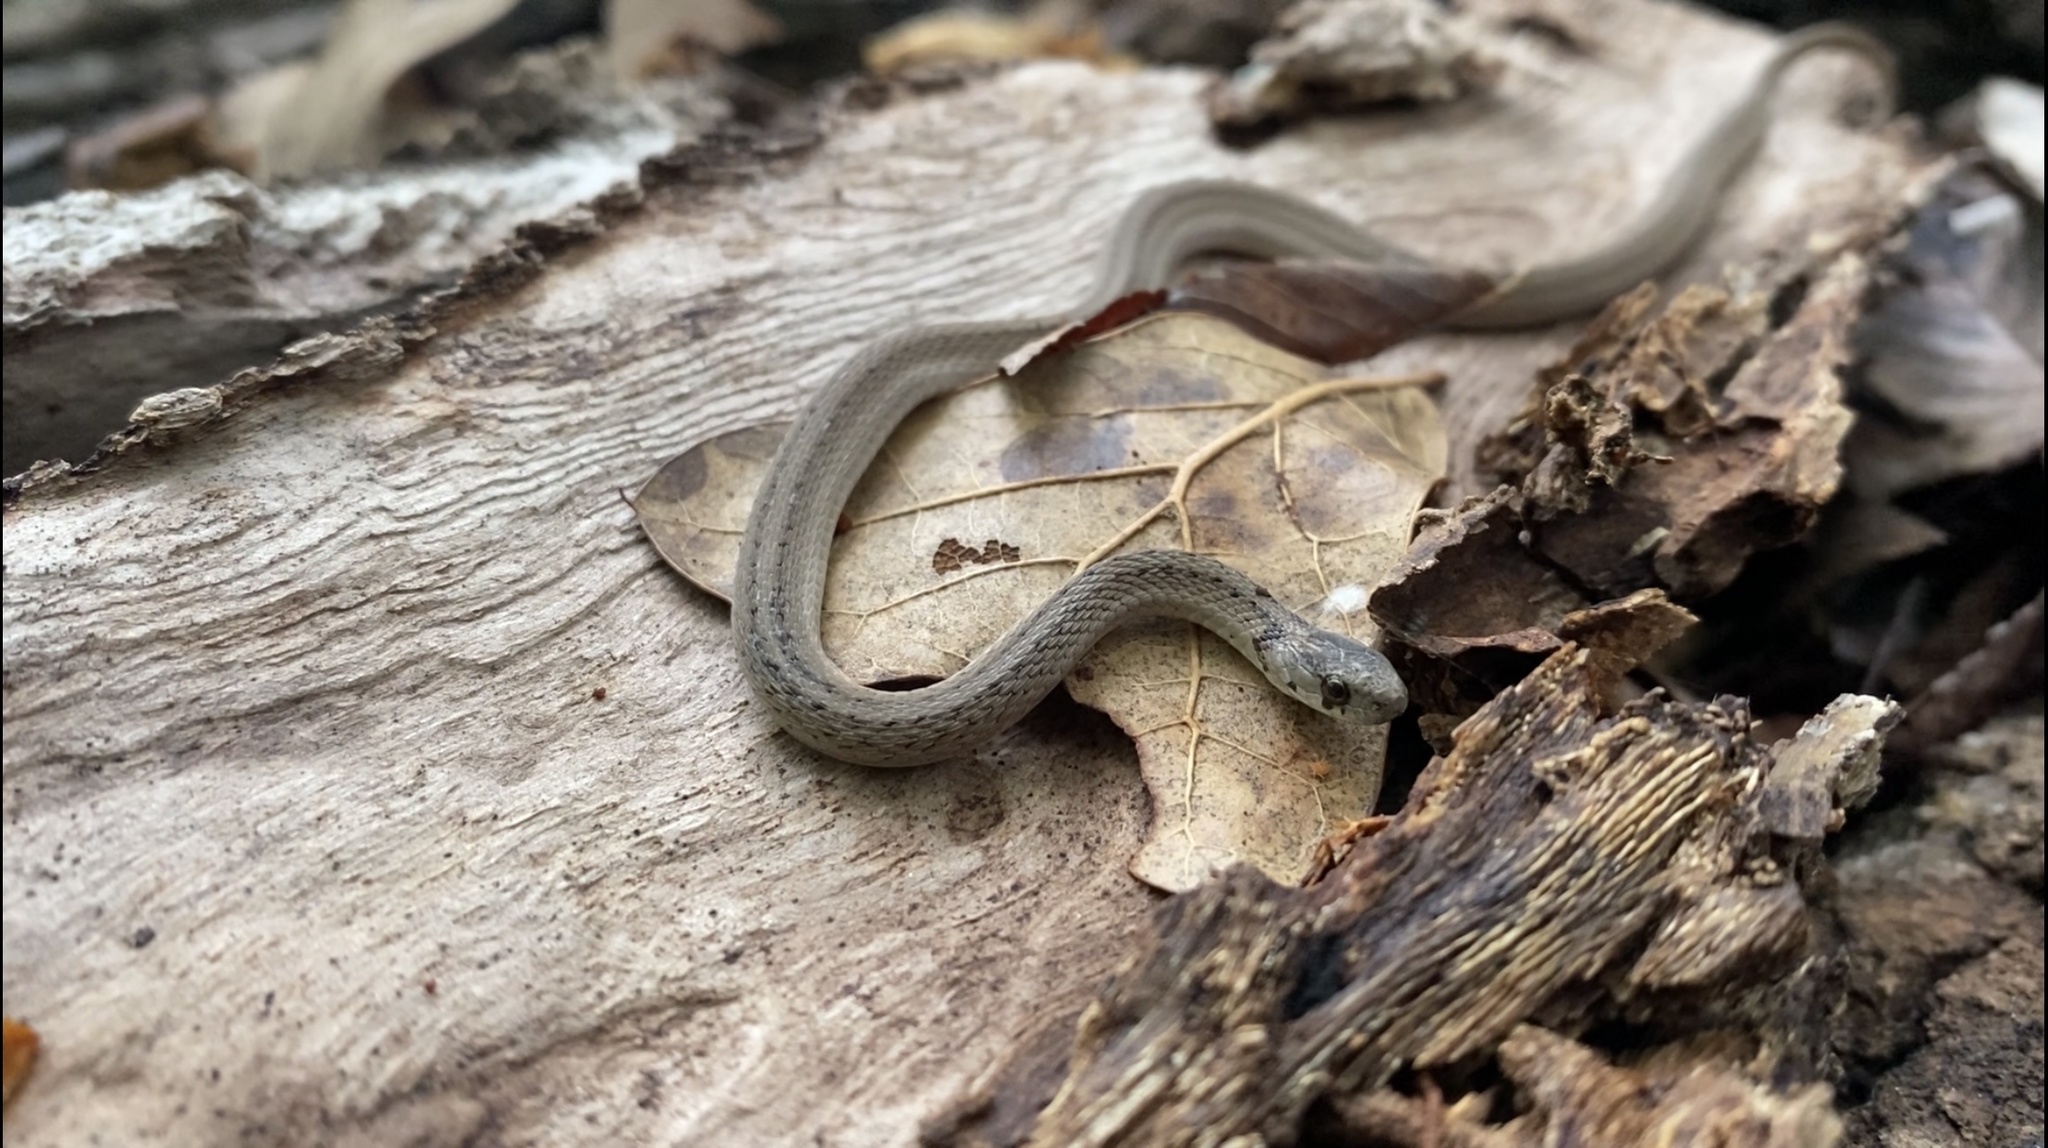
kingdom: Animalia
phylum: Chordata
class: Squamata
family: Colubridae
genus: Storeria
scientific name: Storeria dekayi
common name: (dekay’s) brown snake
